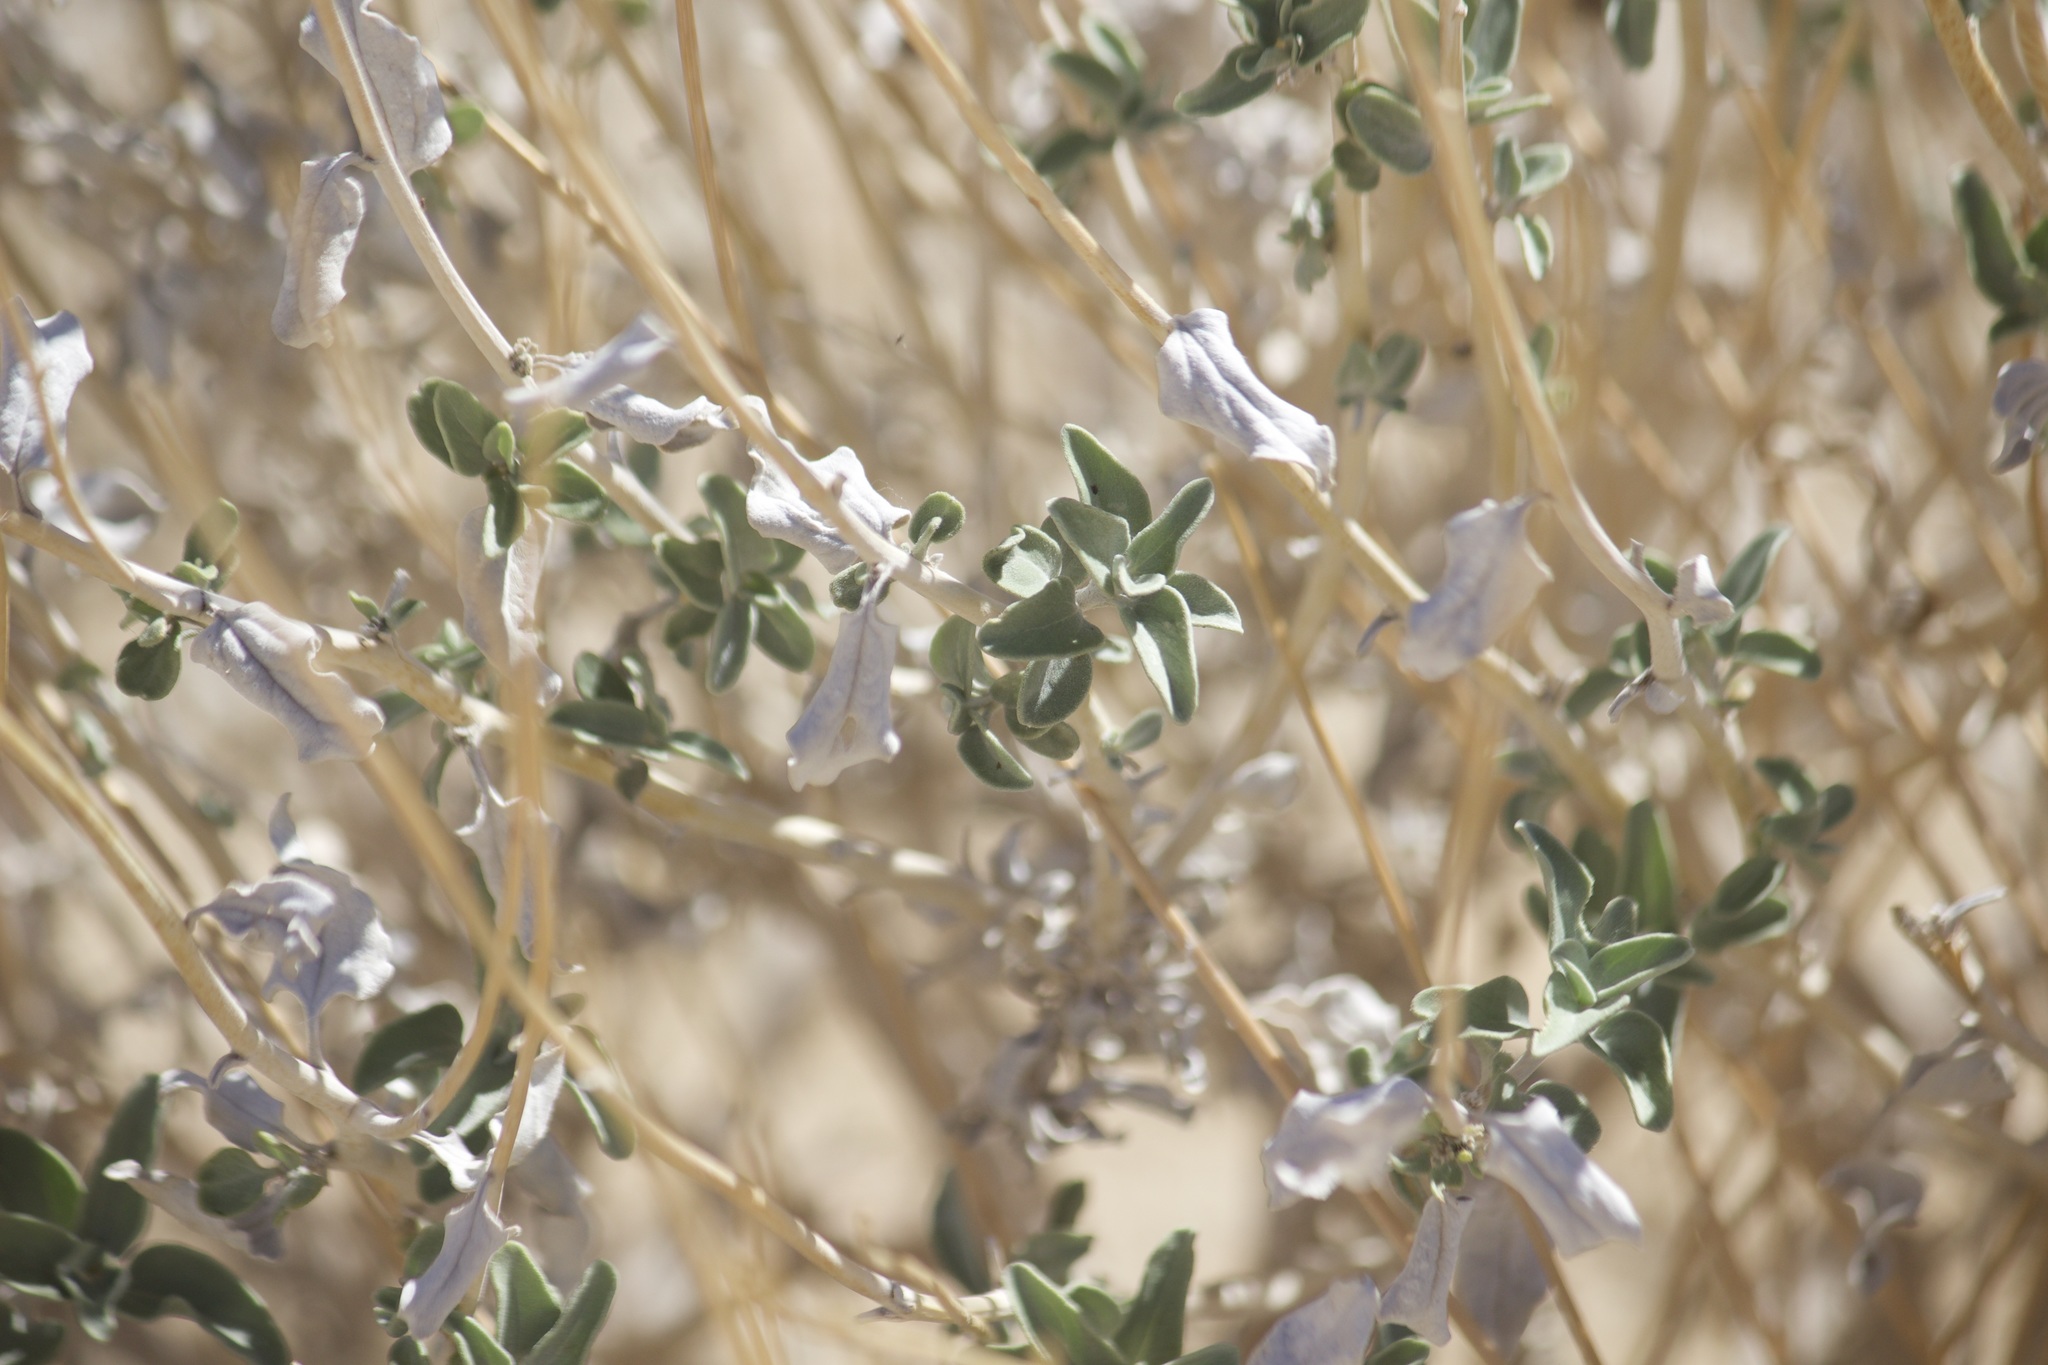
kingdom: Plantae
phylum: Tracheophyta
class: Magnoliopsida
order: Asterales
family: Asteraceae
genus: Encelia
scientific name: Encelia actoni
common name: Acton encelia
